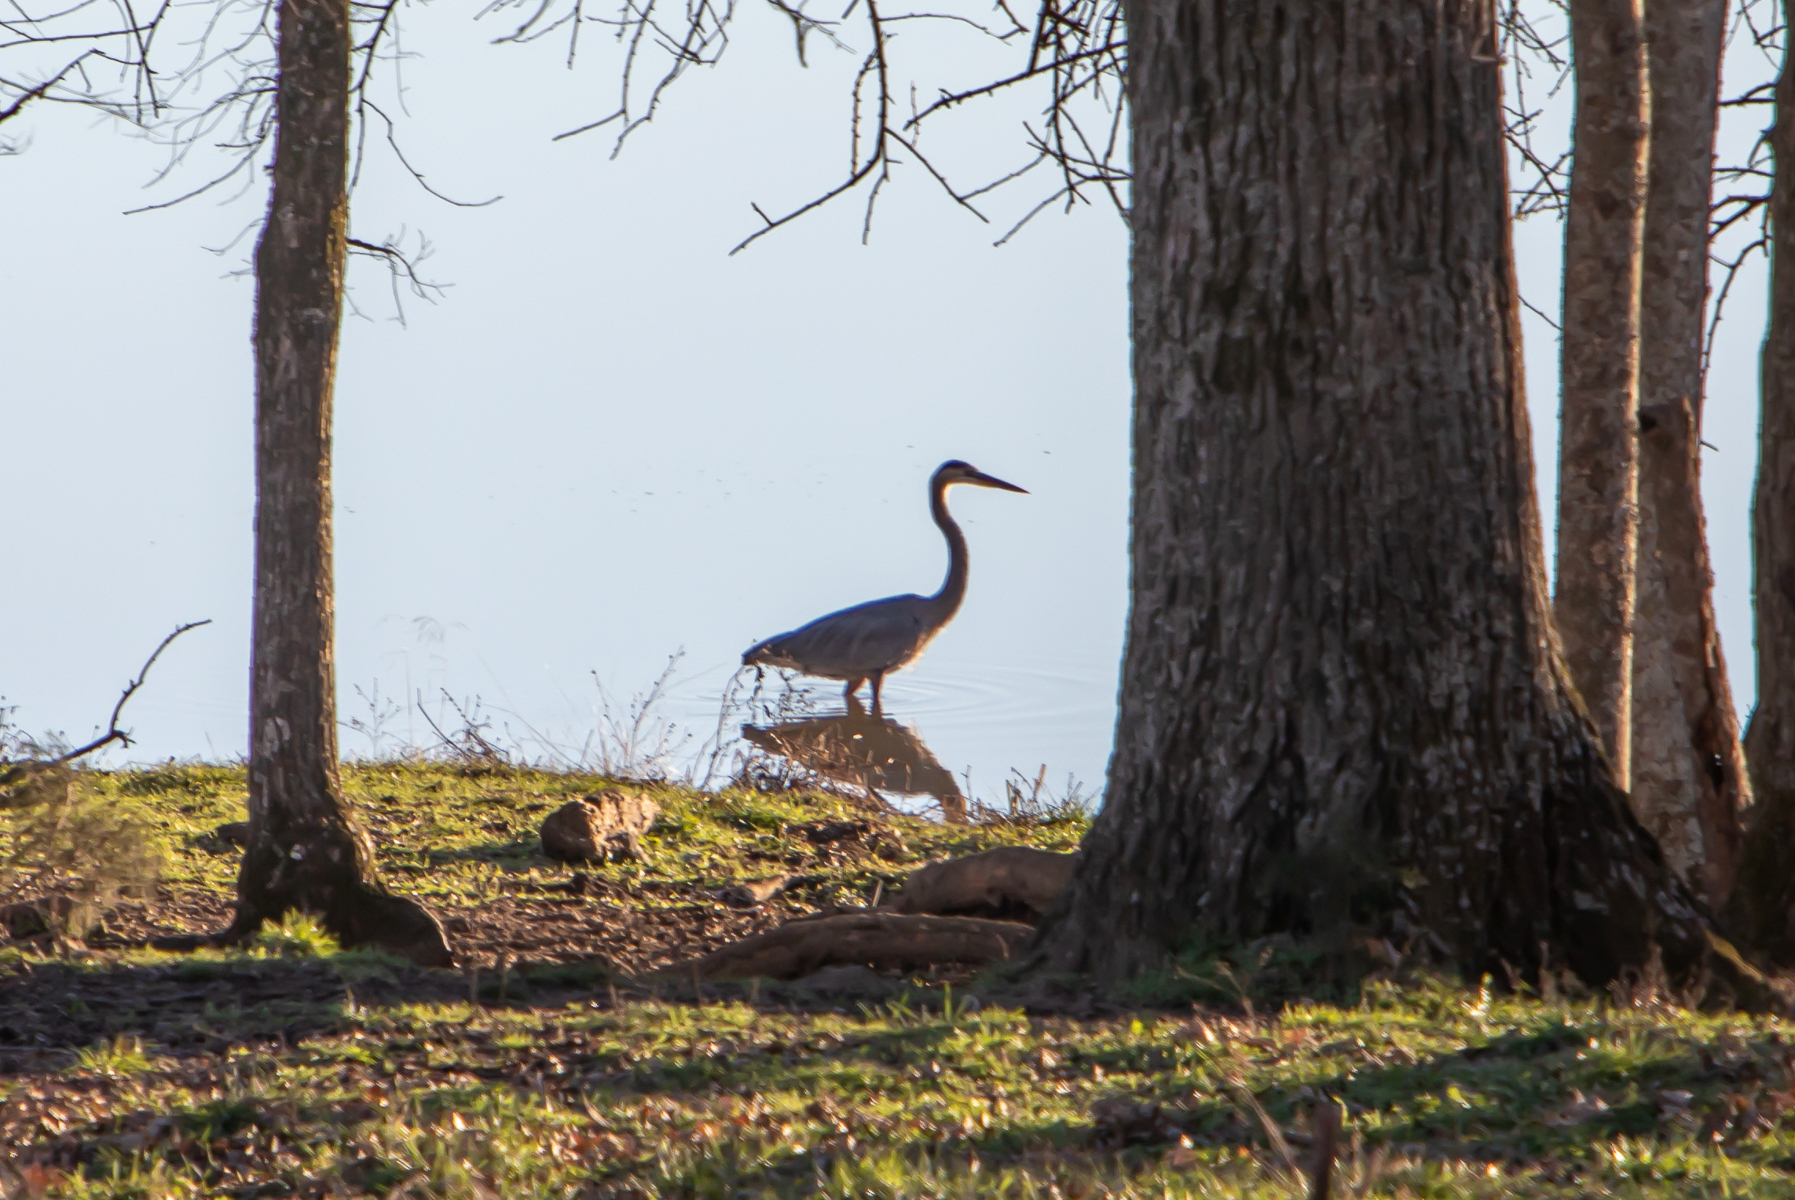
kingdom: Animalia
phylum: Chordata
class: Aves
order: Pelecaniformes
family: Ardeidae
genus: Ardea
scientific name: Ardea herodias
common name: Great blue heron
